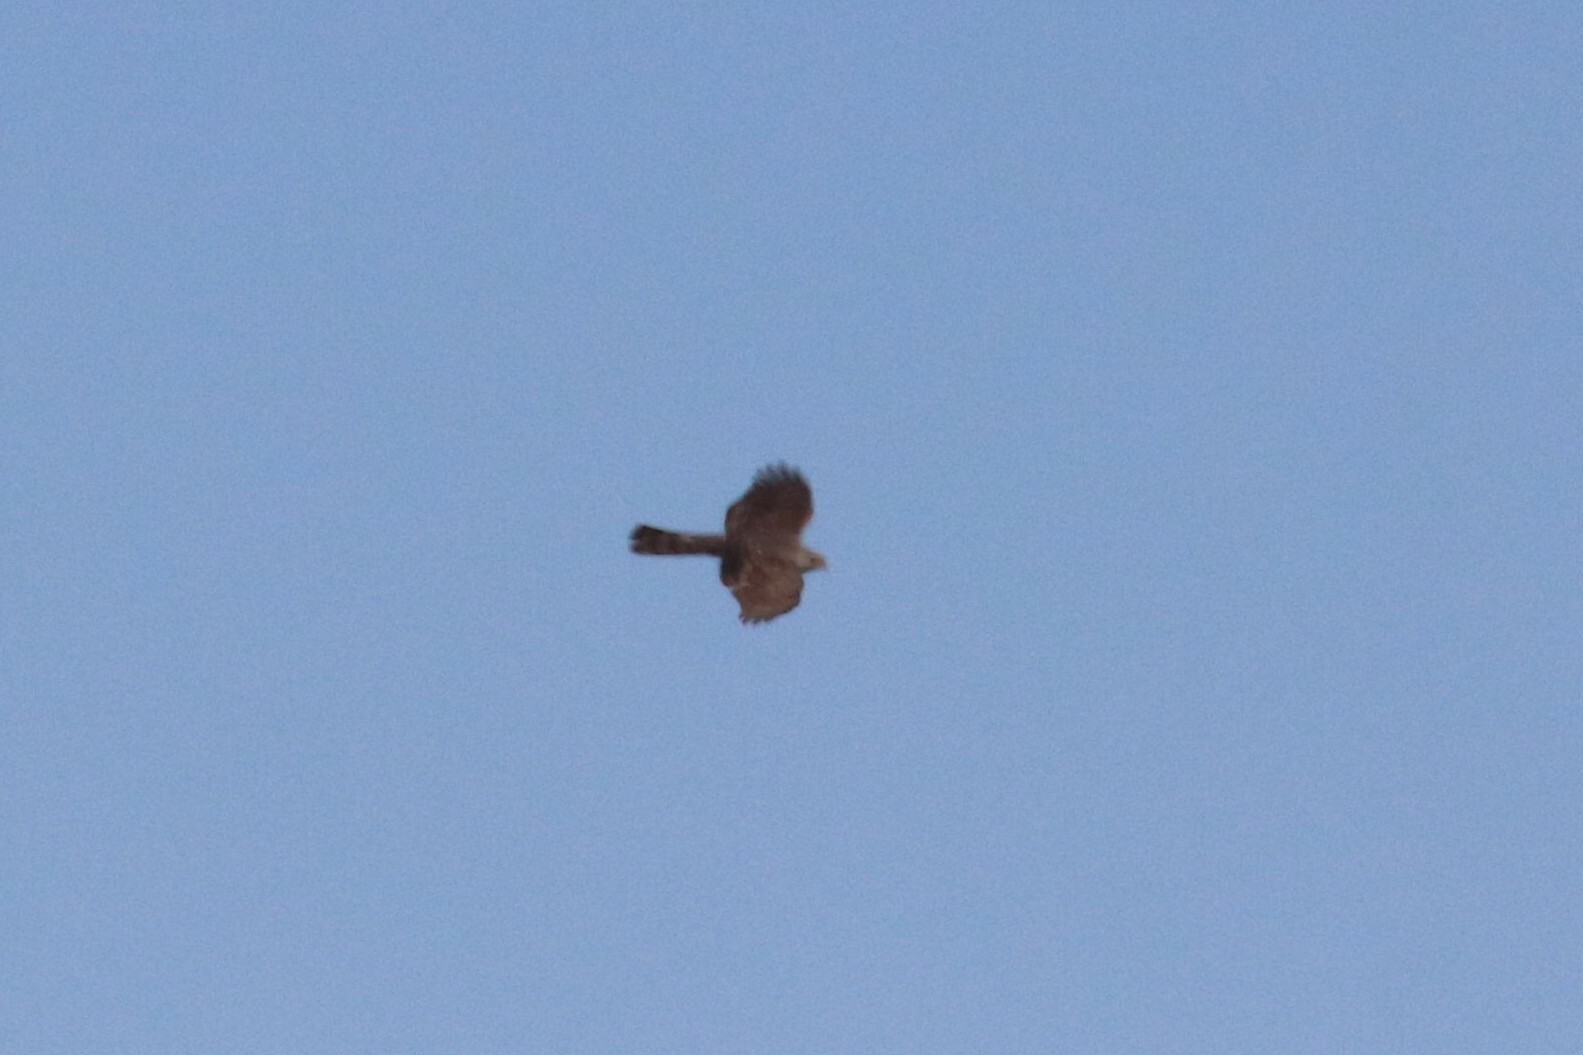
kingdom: Animalia
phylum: Chordata
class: Aves
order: Accipitriformes
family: Accipitridae
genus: Accipiter
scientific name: Accipiter nisus
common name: Eurasian sparrowhawk
